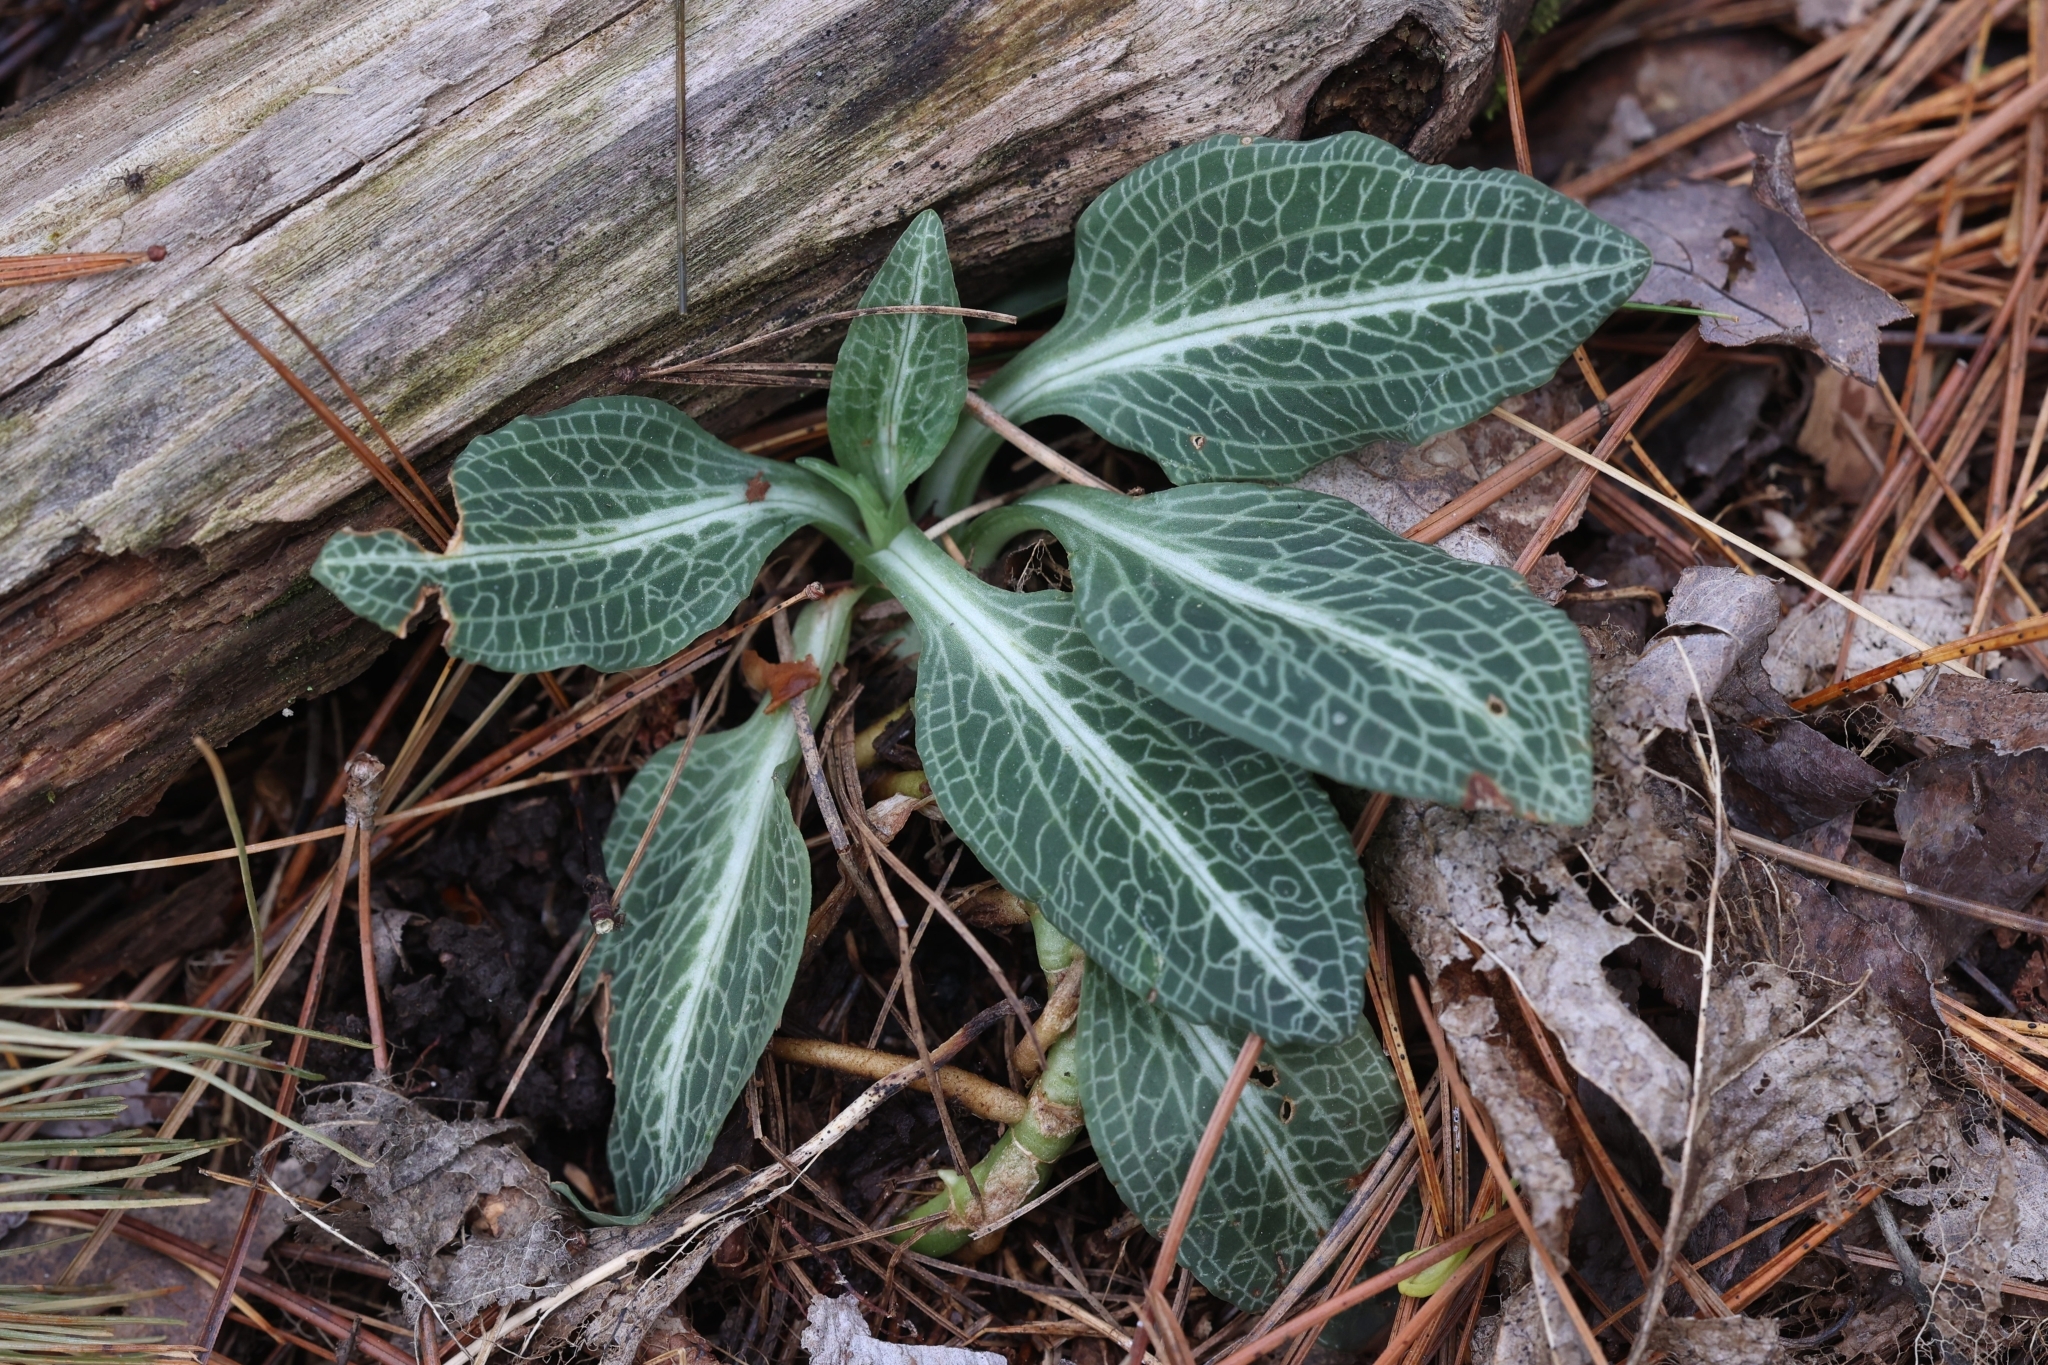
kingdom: Plantae
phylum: Tracheophyta
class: Liliopsida
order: Asparagales
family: Orchidaceae
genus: Goodyera
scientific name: Goodyera pubescens
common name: Downy rattlesnake-plantain
